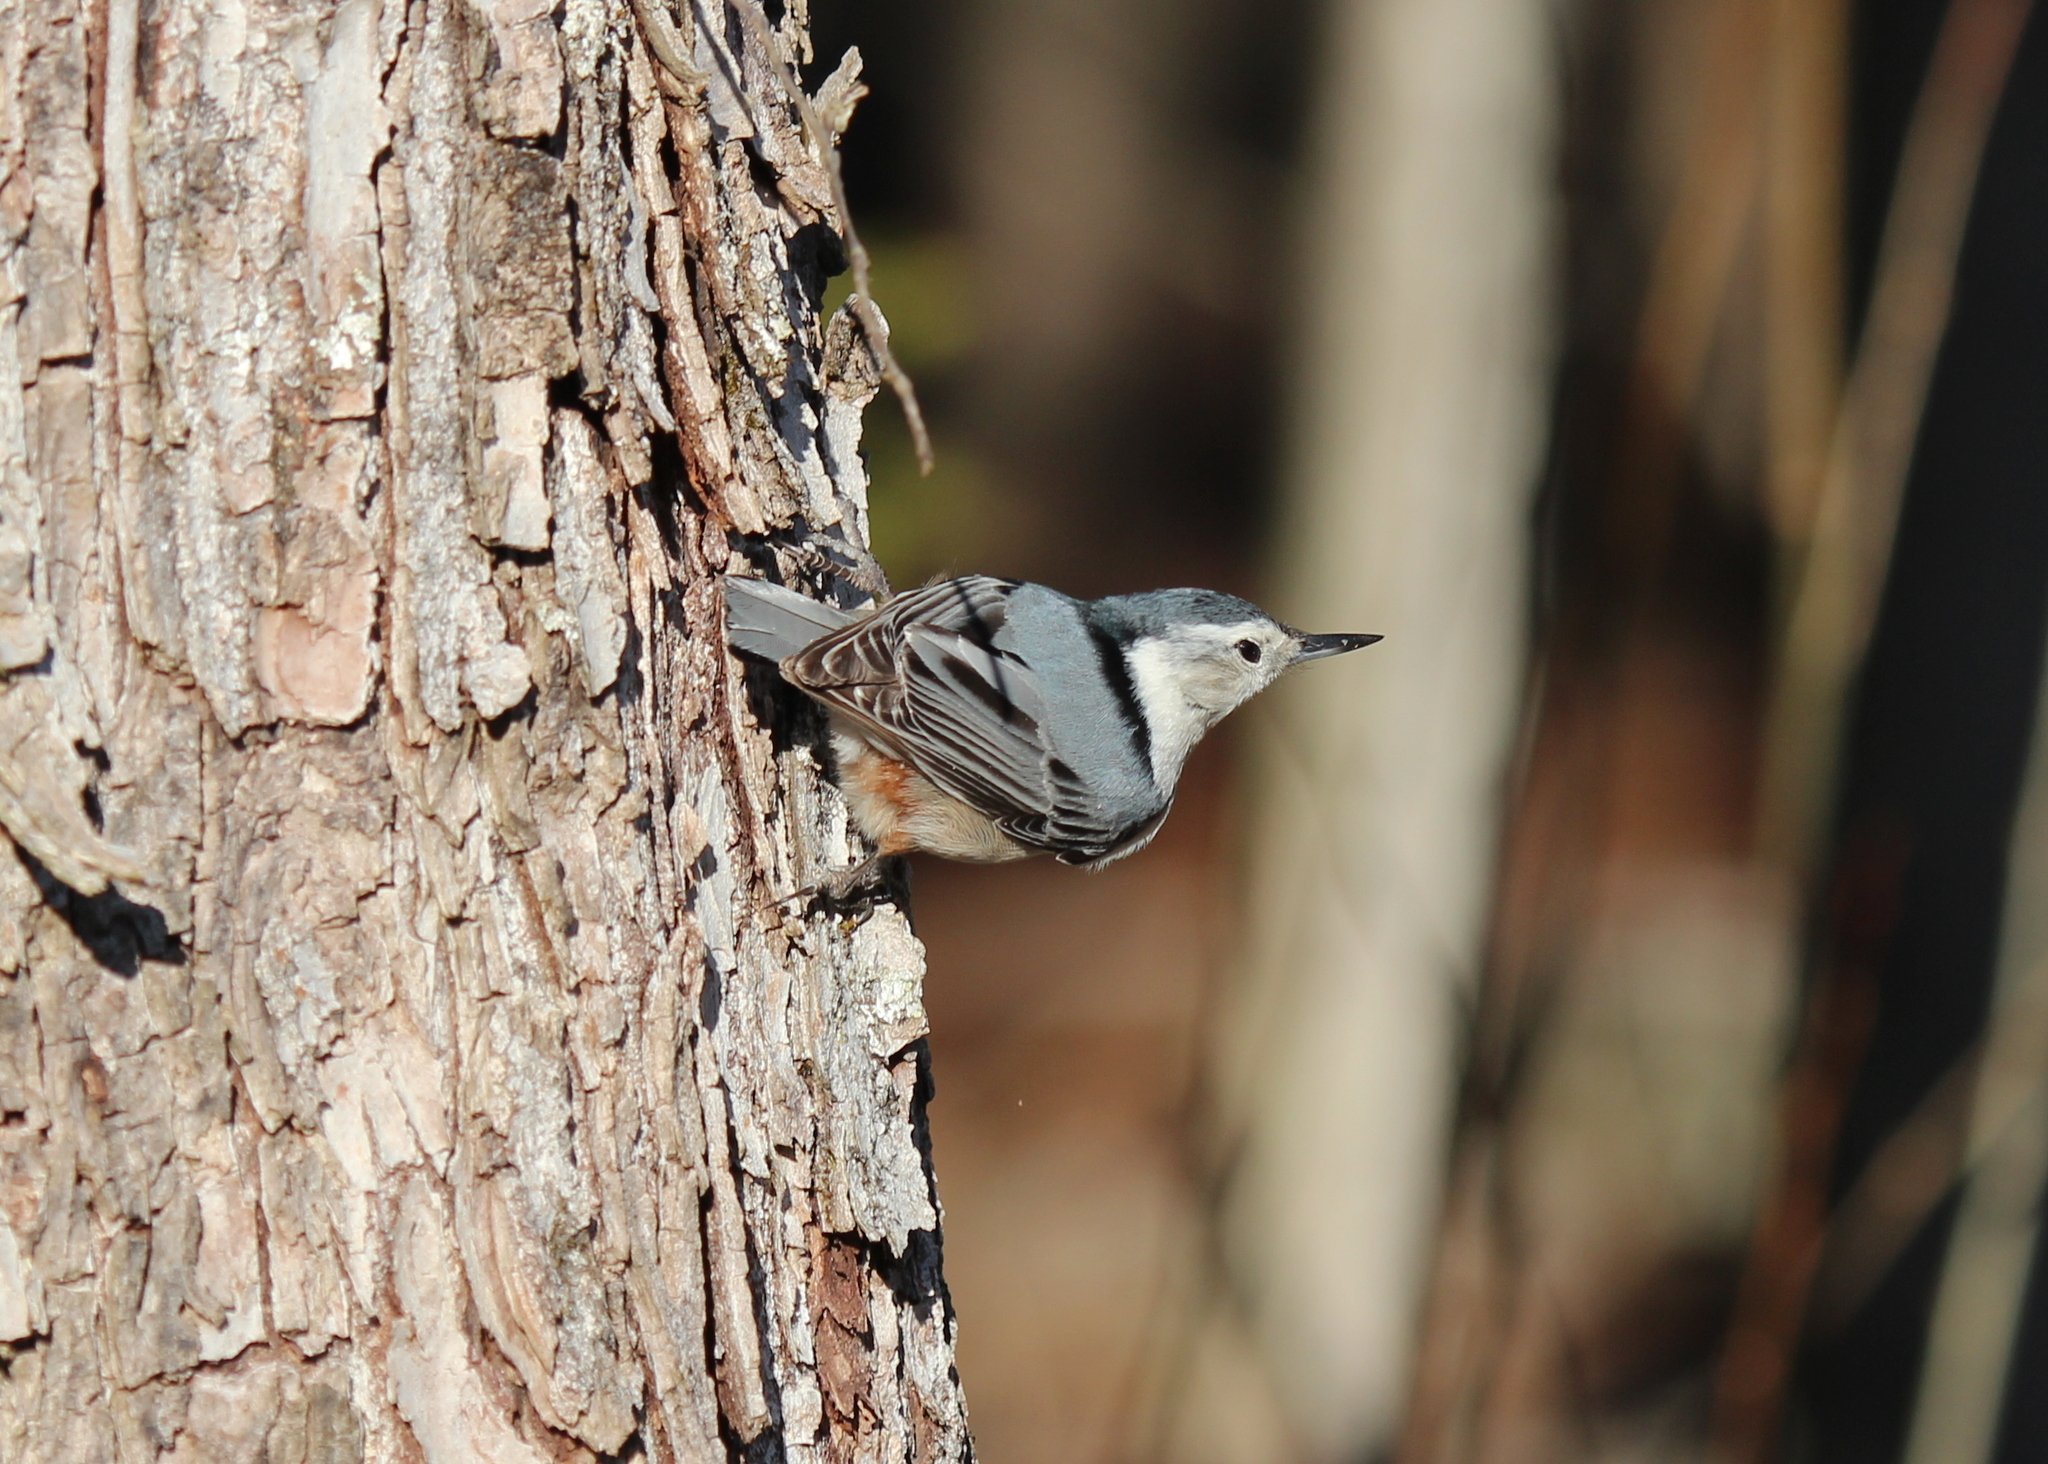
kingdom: Animalia
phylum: Chordata
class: Aves
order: Passeriformes
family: Sittidae
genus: Sitta
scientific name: Sitta carolinensis
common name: White-breasted nuthatch
